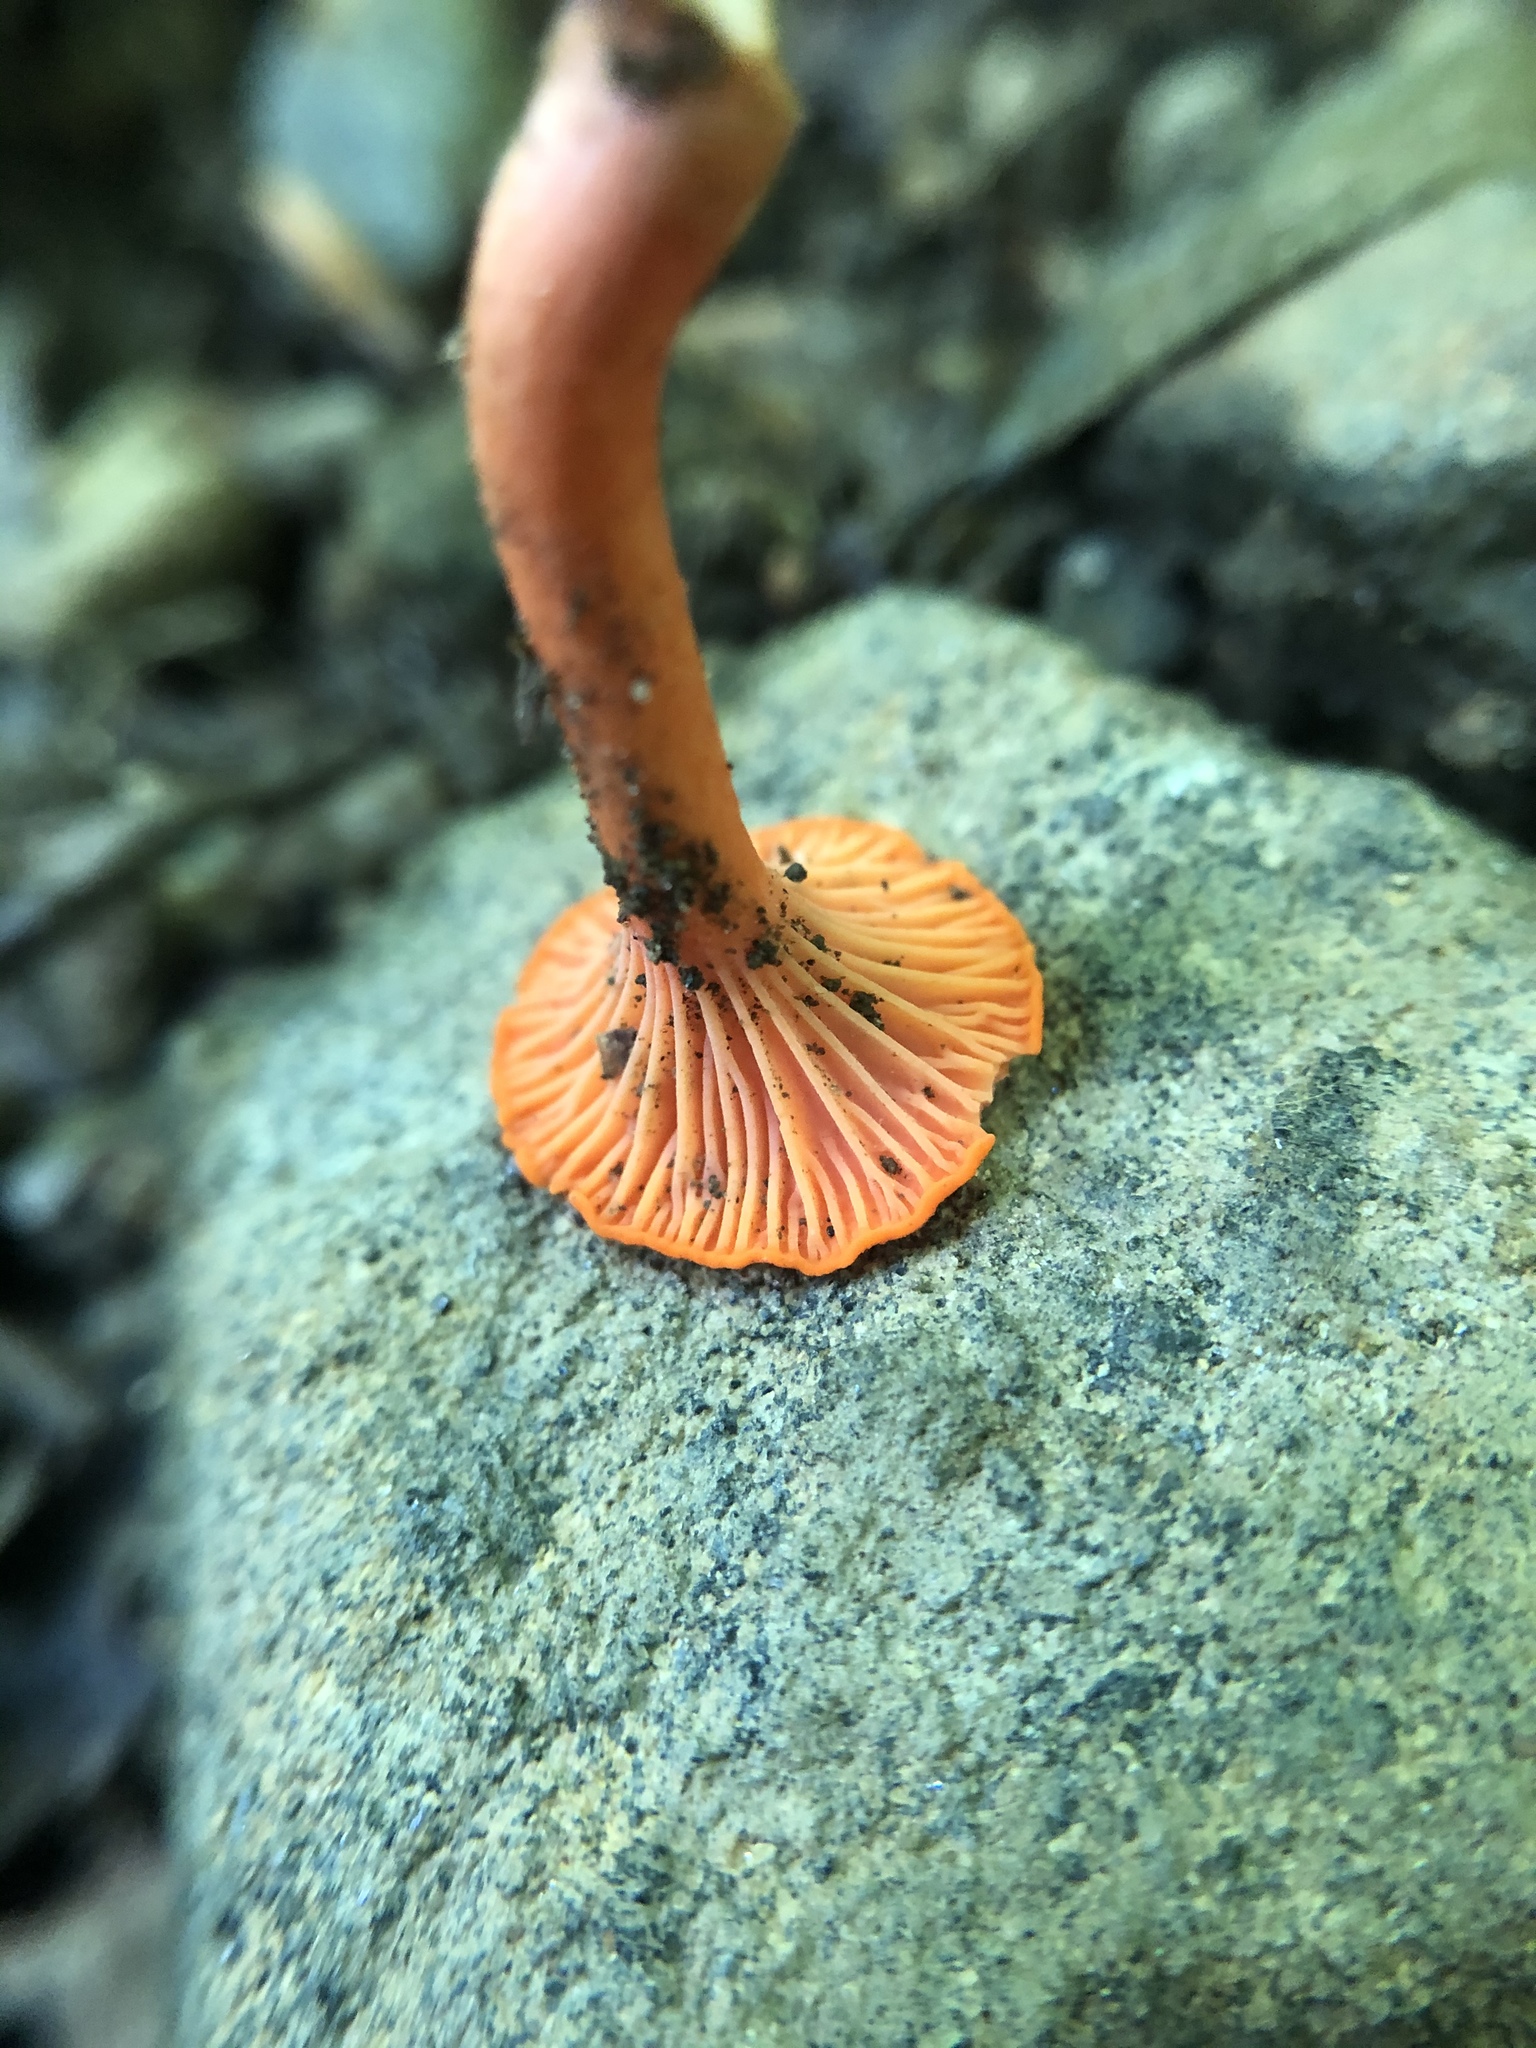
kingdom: Fungi
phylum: Basidiomycota
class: Agaricomycetes
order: Cantharellales
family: Hydnaceae
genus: Cantharellus
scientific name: Cantharellus cinnabarinus
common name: Cinnabar chanterelle
